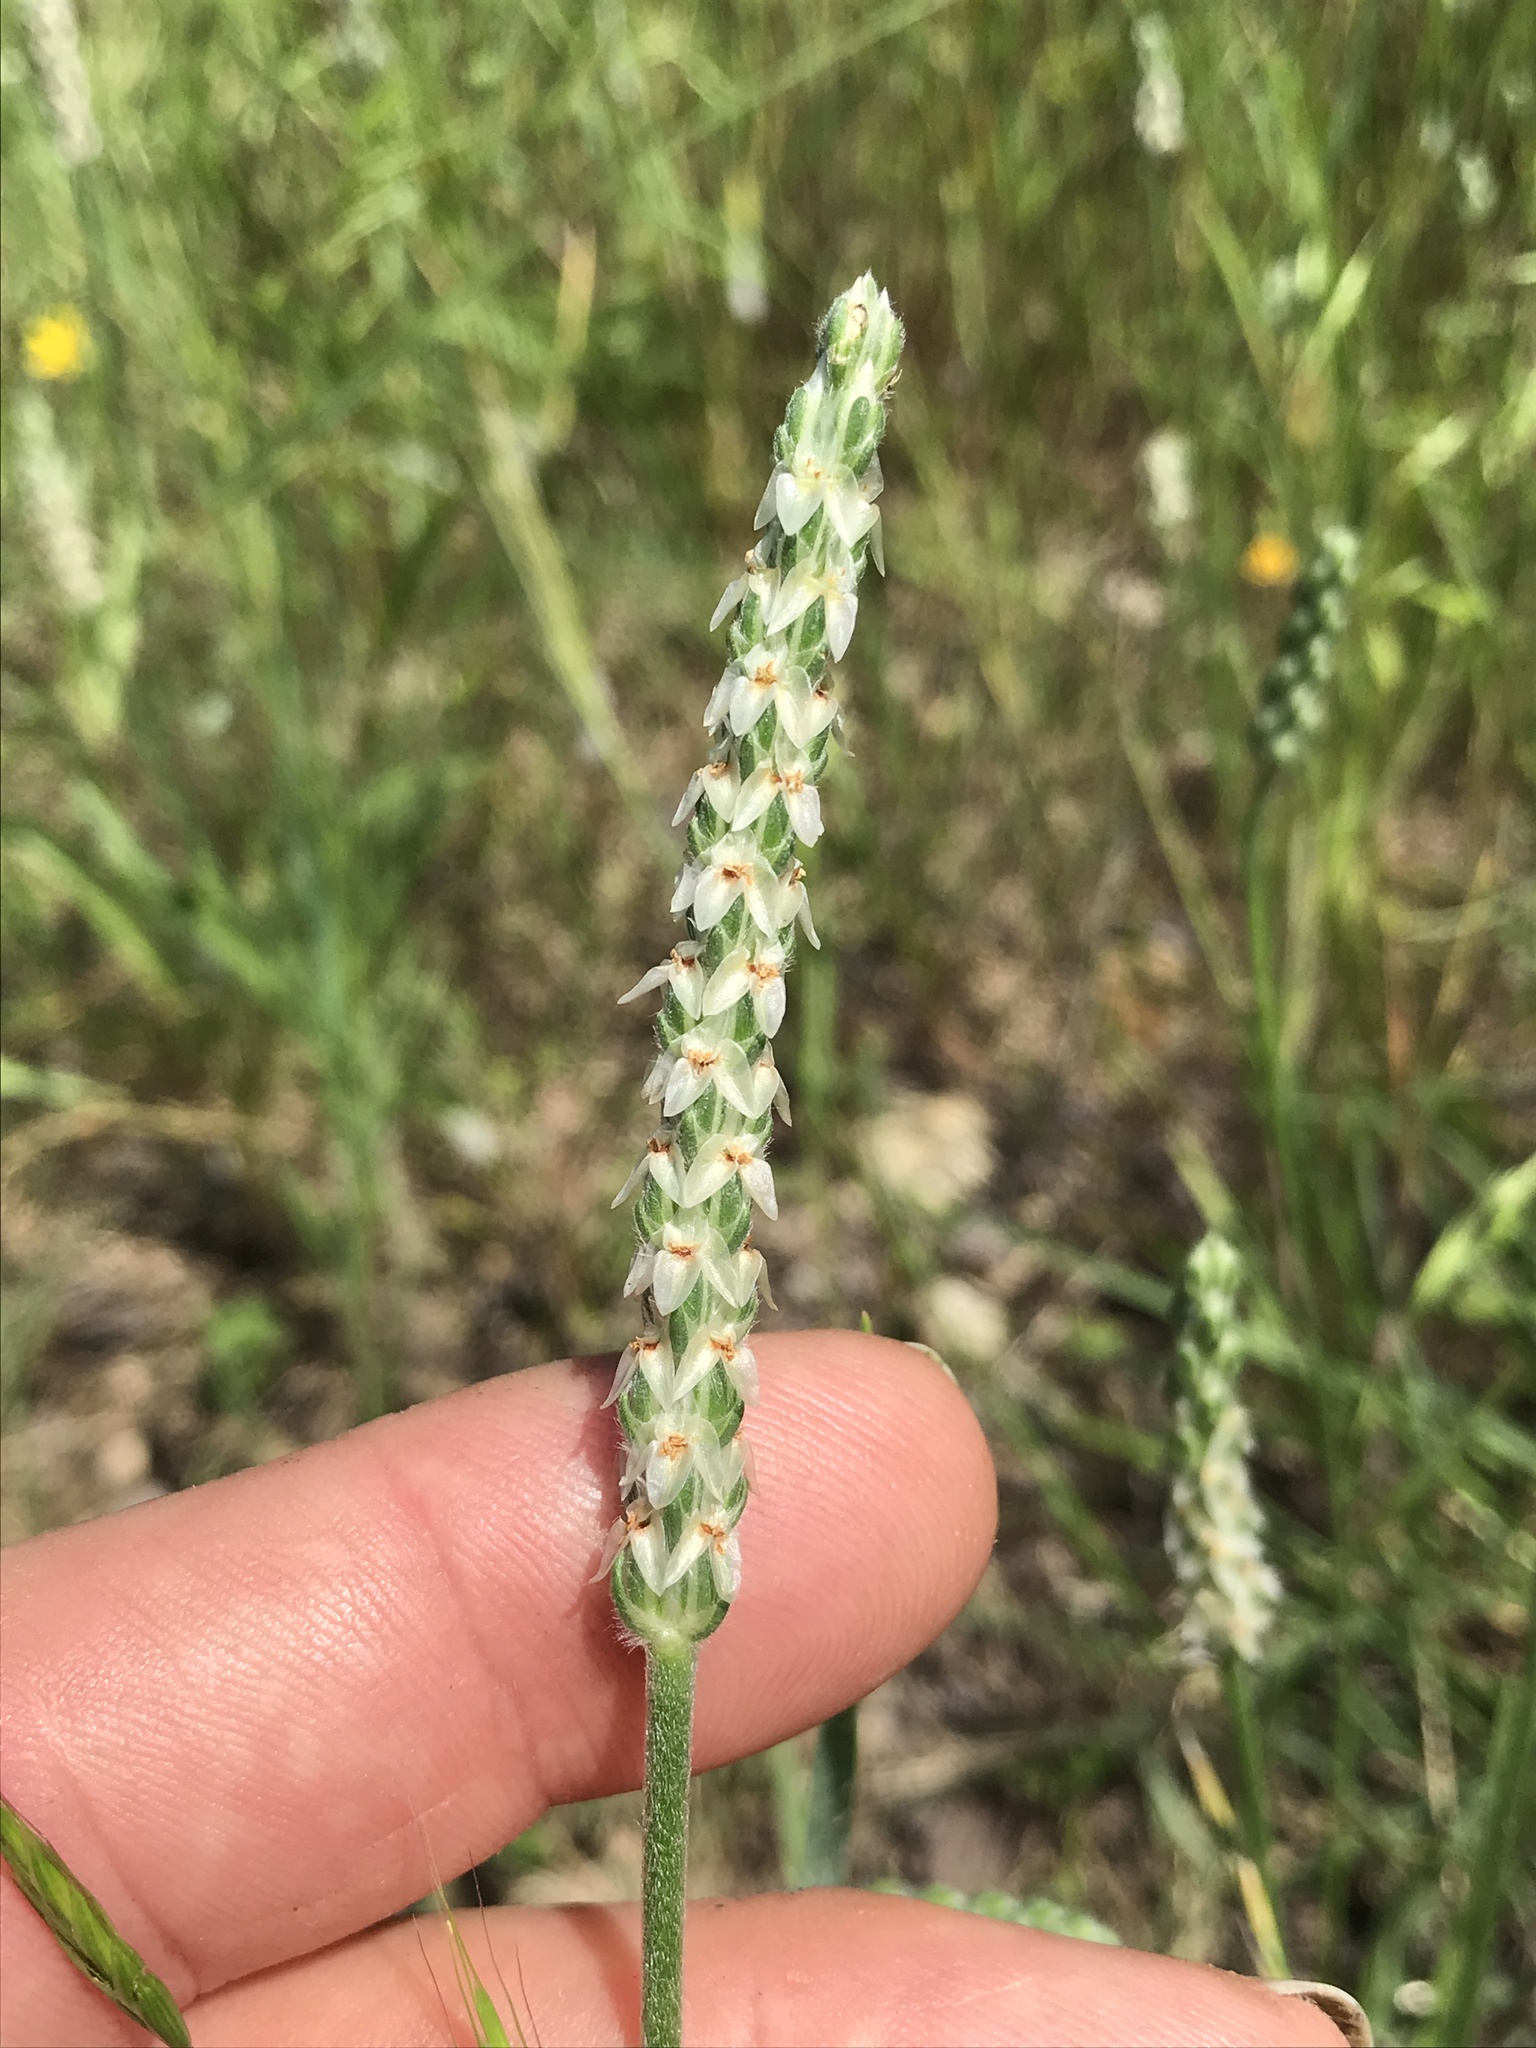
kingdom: Plantae
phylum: Tracheophyta
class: Magnoliopsida
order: Lamiales
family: Plantaginaceae
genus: Plantago
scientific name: Plantago wrightiana
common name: Wright's plantain
